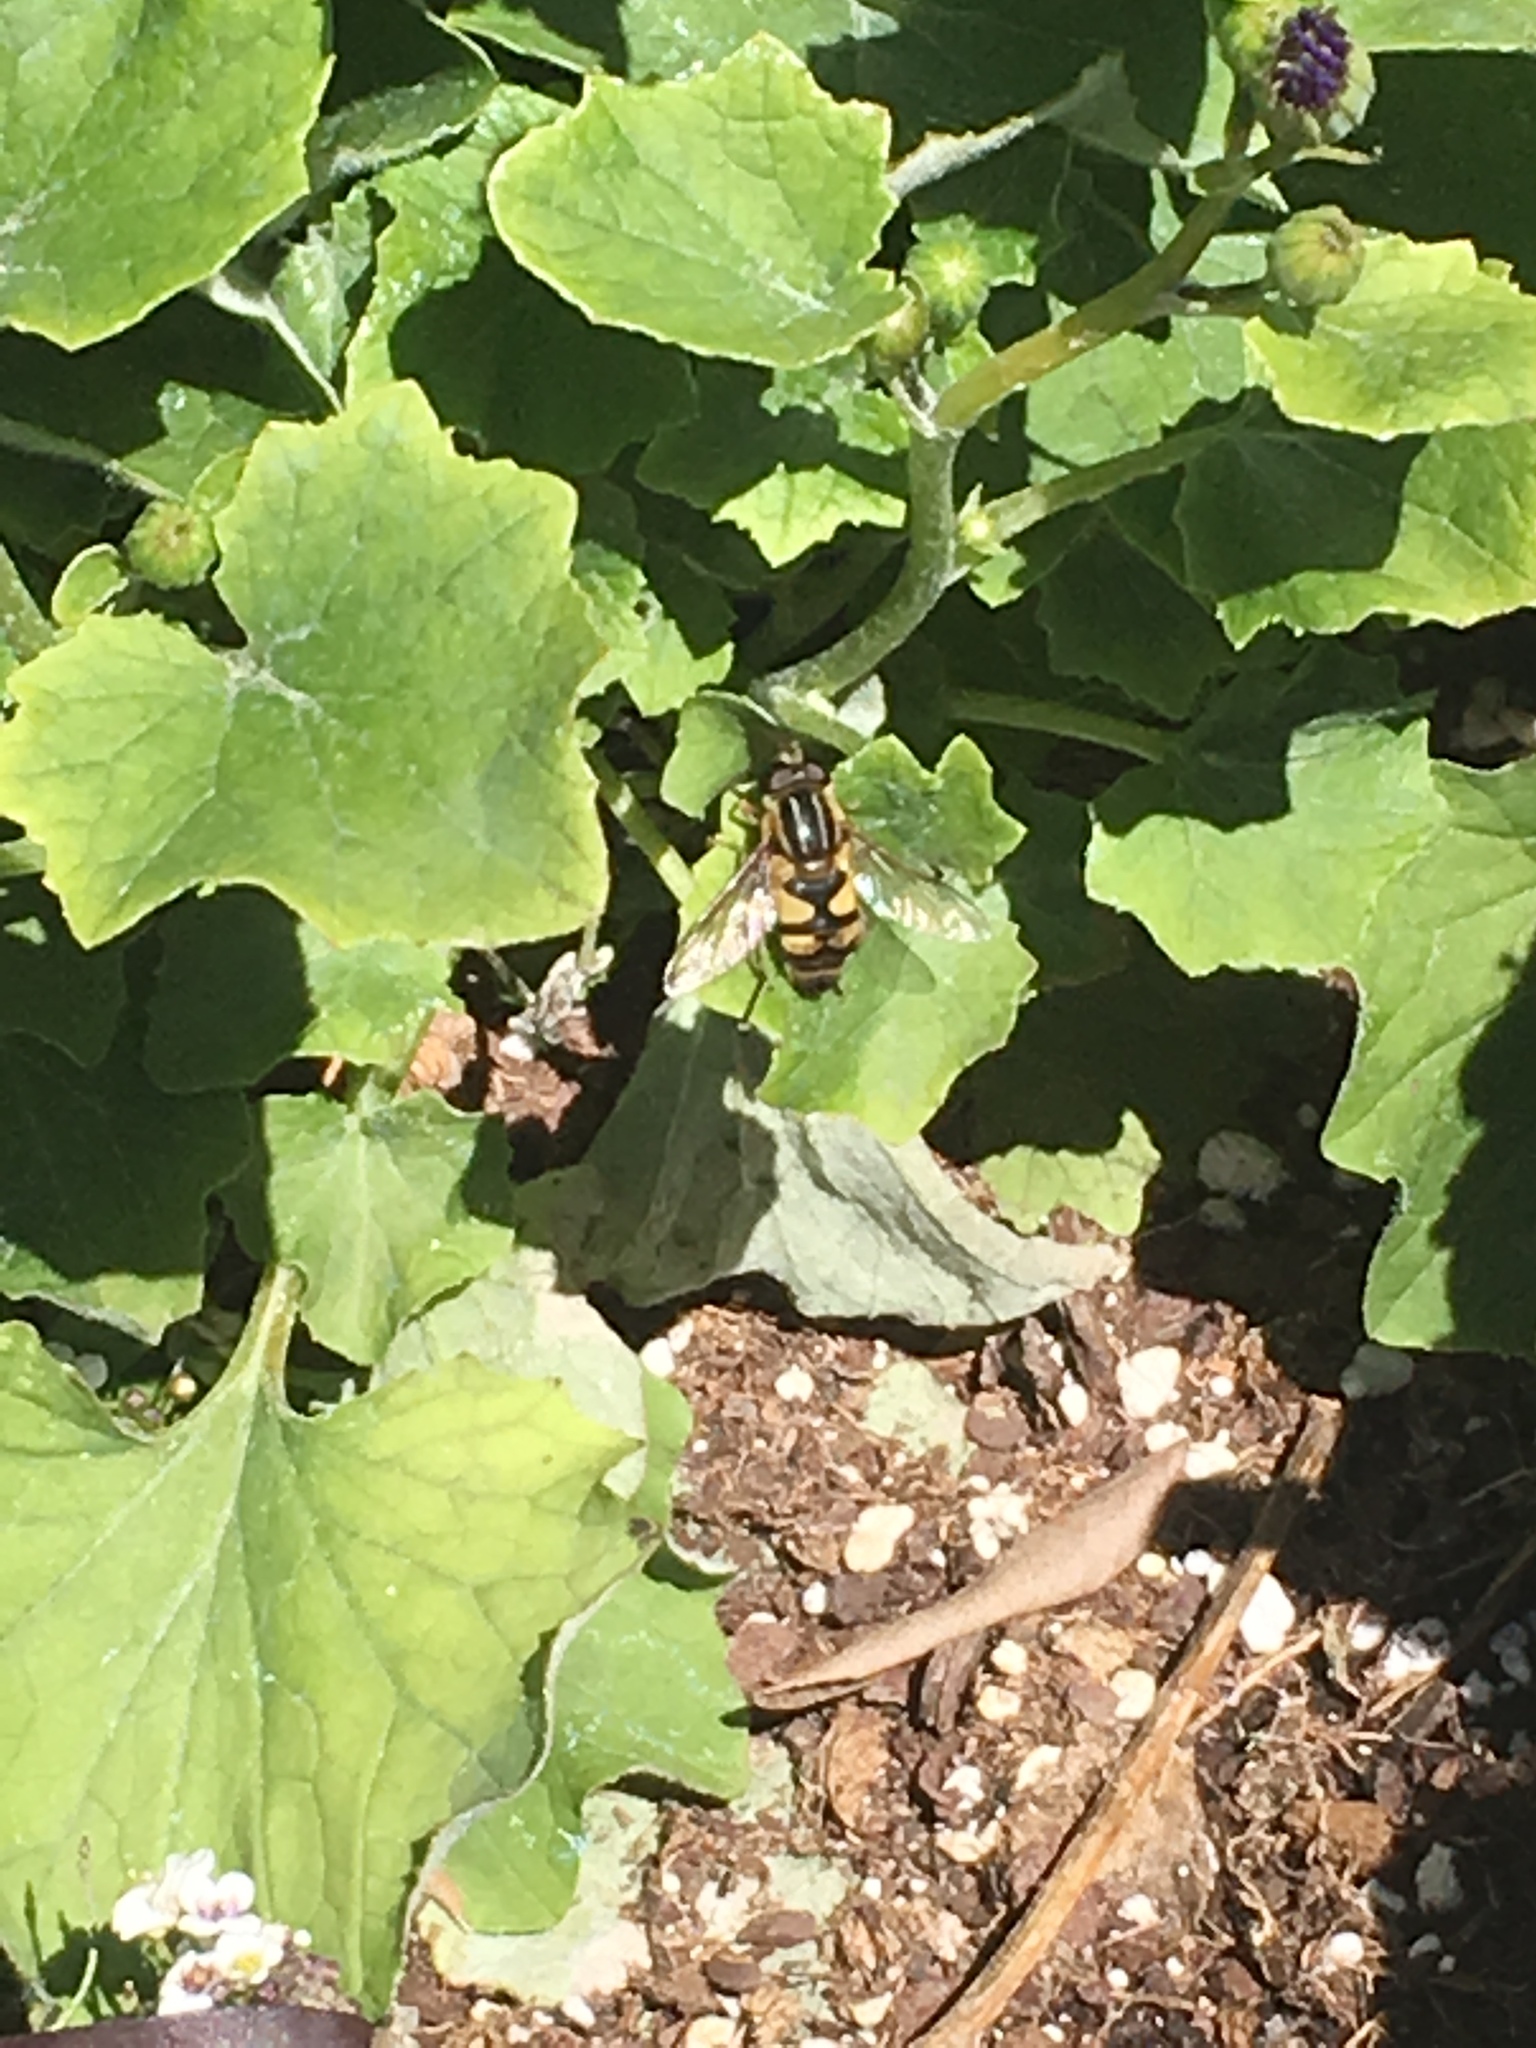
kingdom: Animalia
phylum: Arthropoda
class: Insecta
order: Diptera
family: Syrphidae
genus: Helophilus
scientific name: Helophilus fasciatus
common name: Narrow-headed marsh fly
